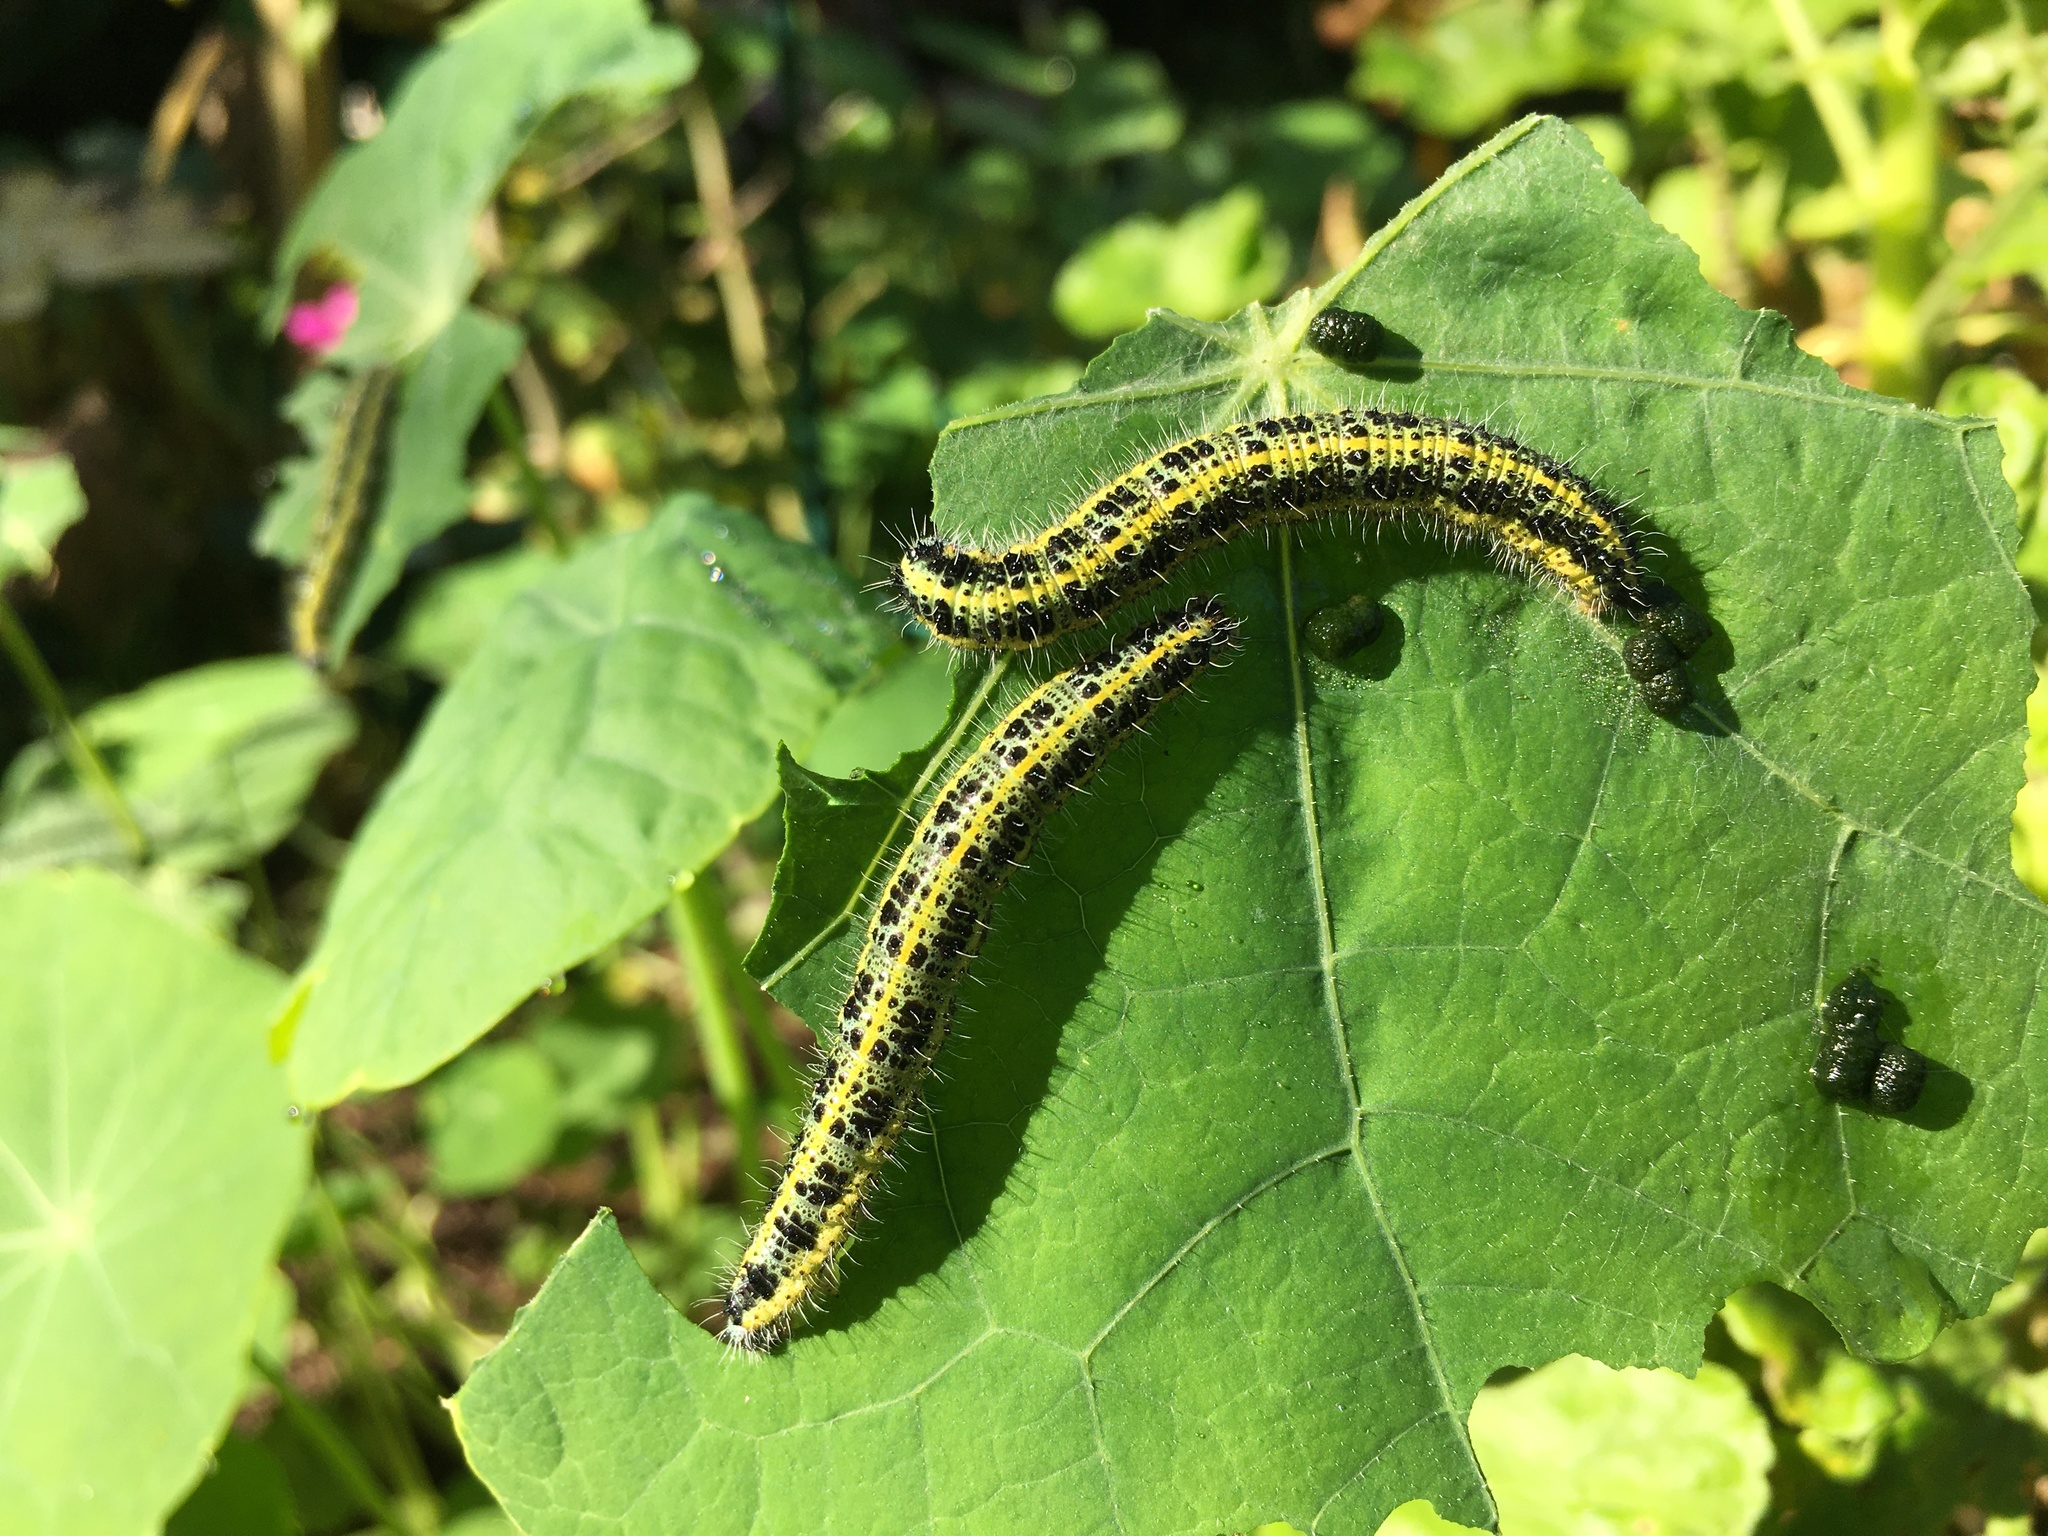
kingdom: Animalia
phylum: Arthropoda
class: Insecta
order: Lepidoptera
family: Pieridae
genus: Pieris
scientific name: Pieris brassicae
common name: Large white
